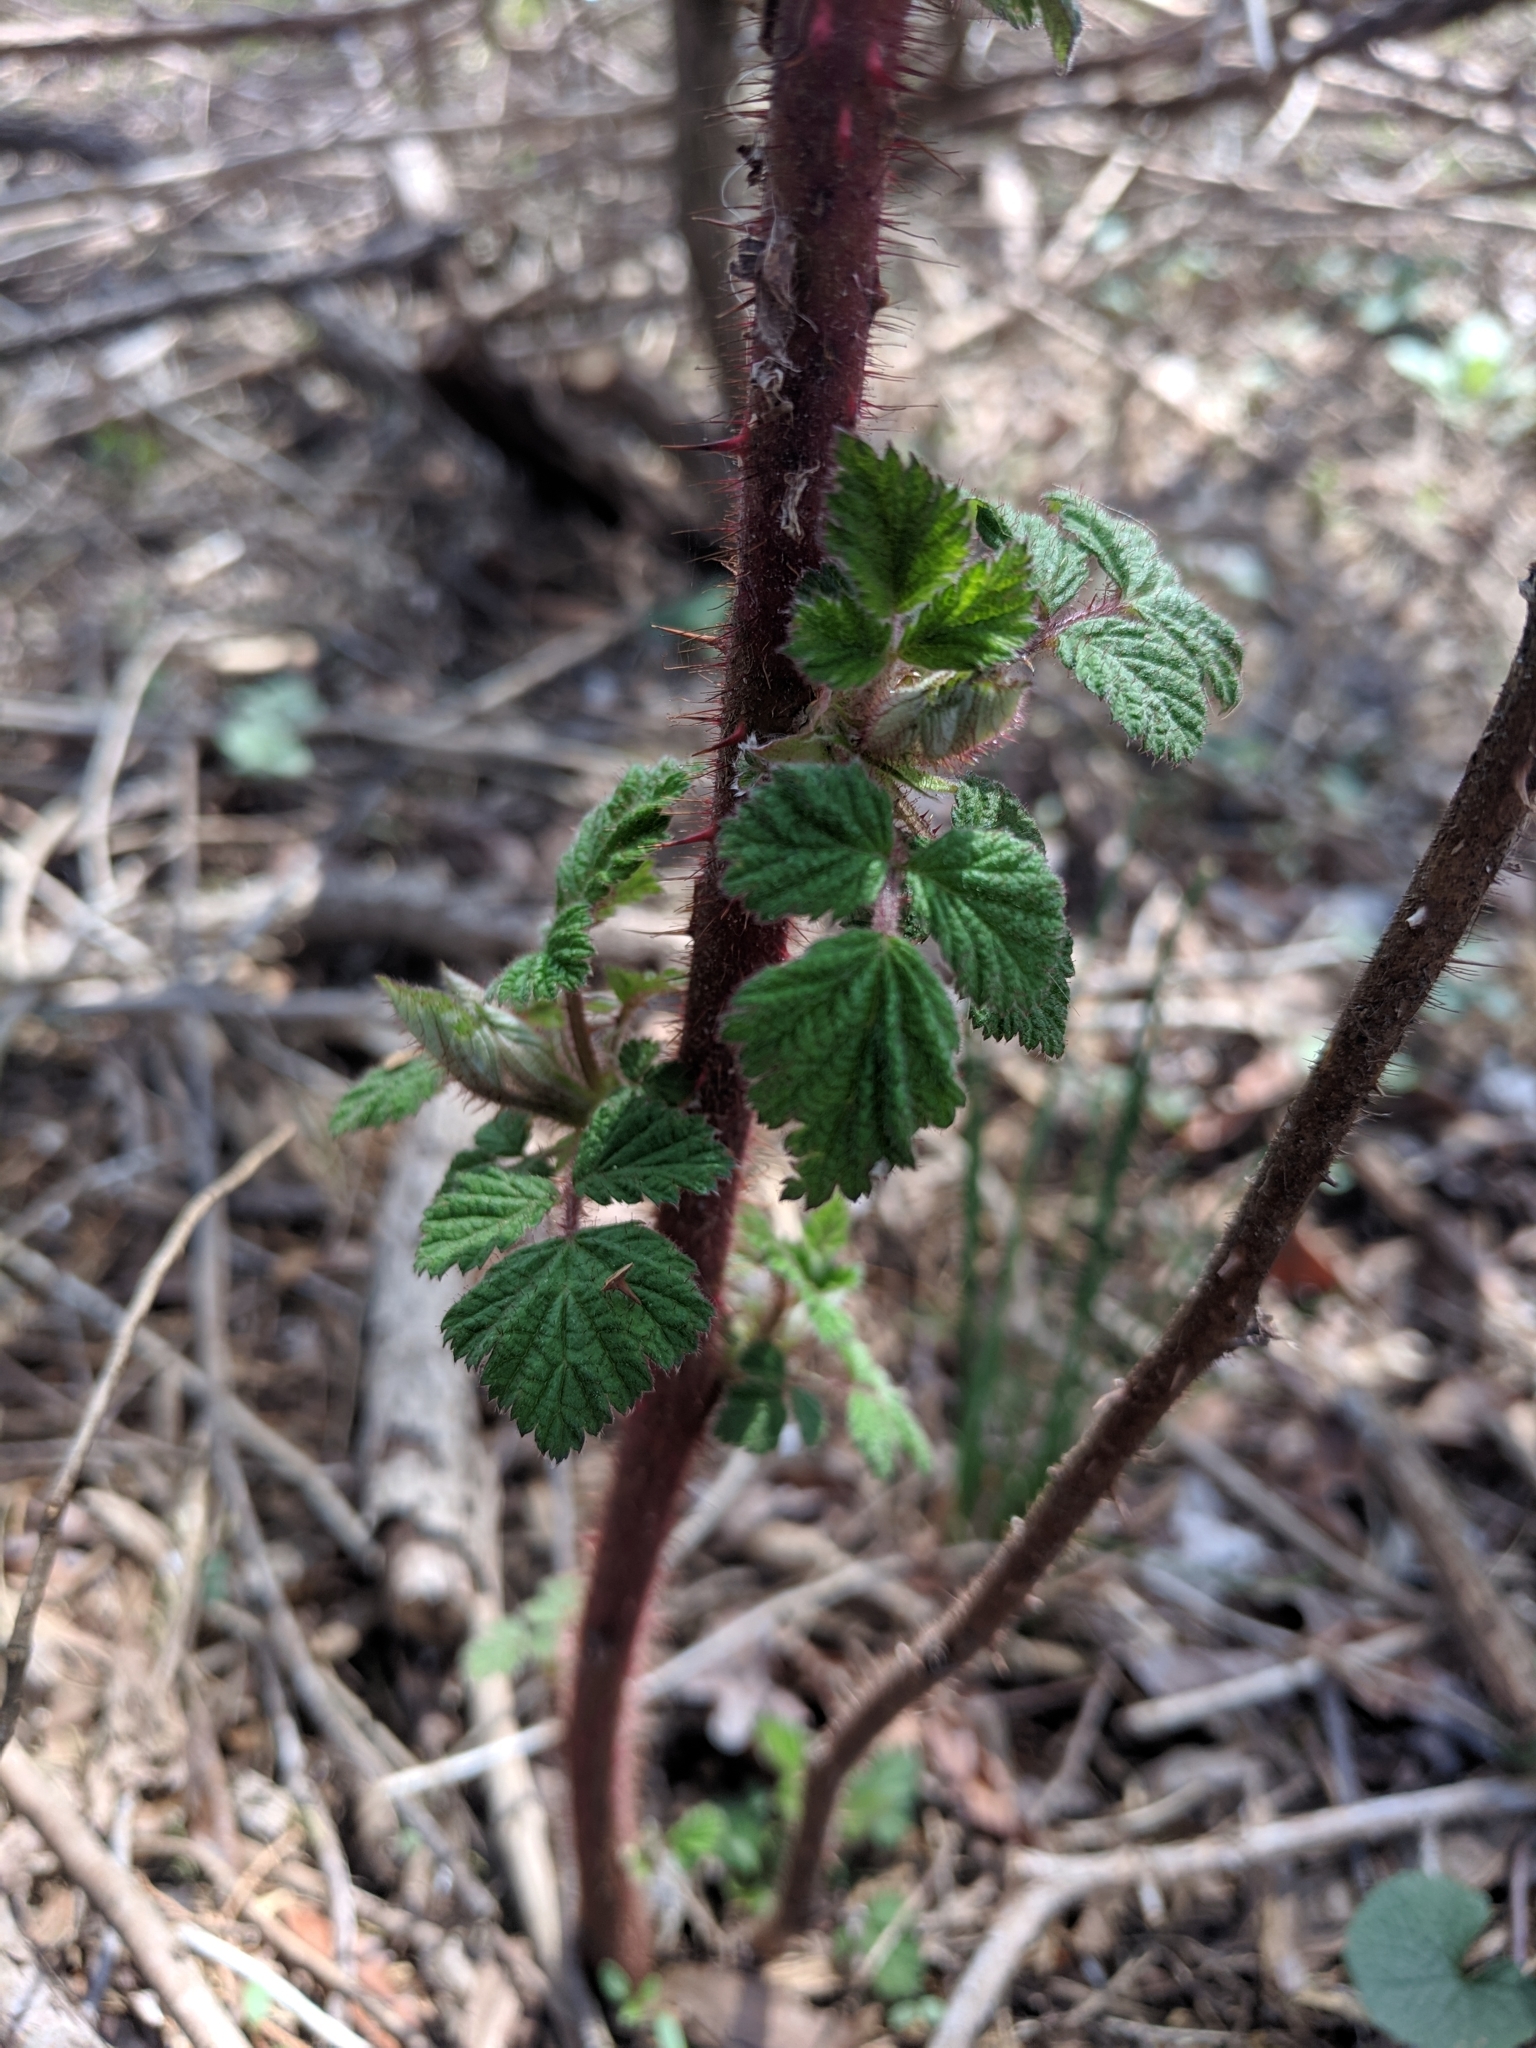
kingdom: Plantae
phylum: Tracheophyta
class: Magnoliopsida
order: Rosales
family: Rosaceae
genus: Rubus
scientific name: Rubus phoenicolasius
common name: Japanese wineberry
